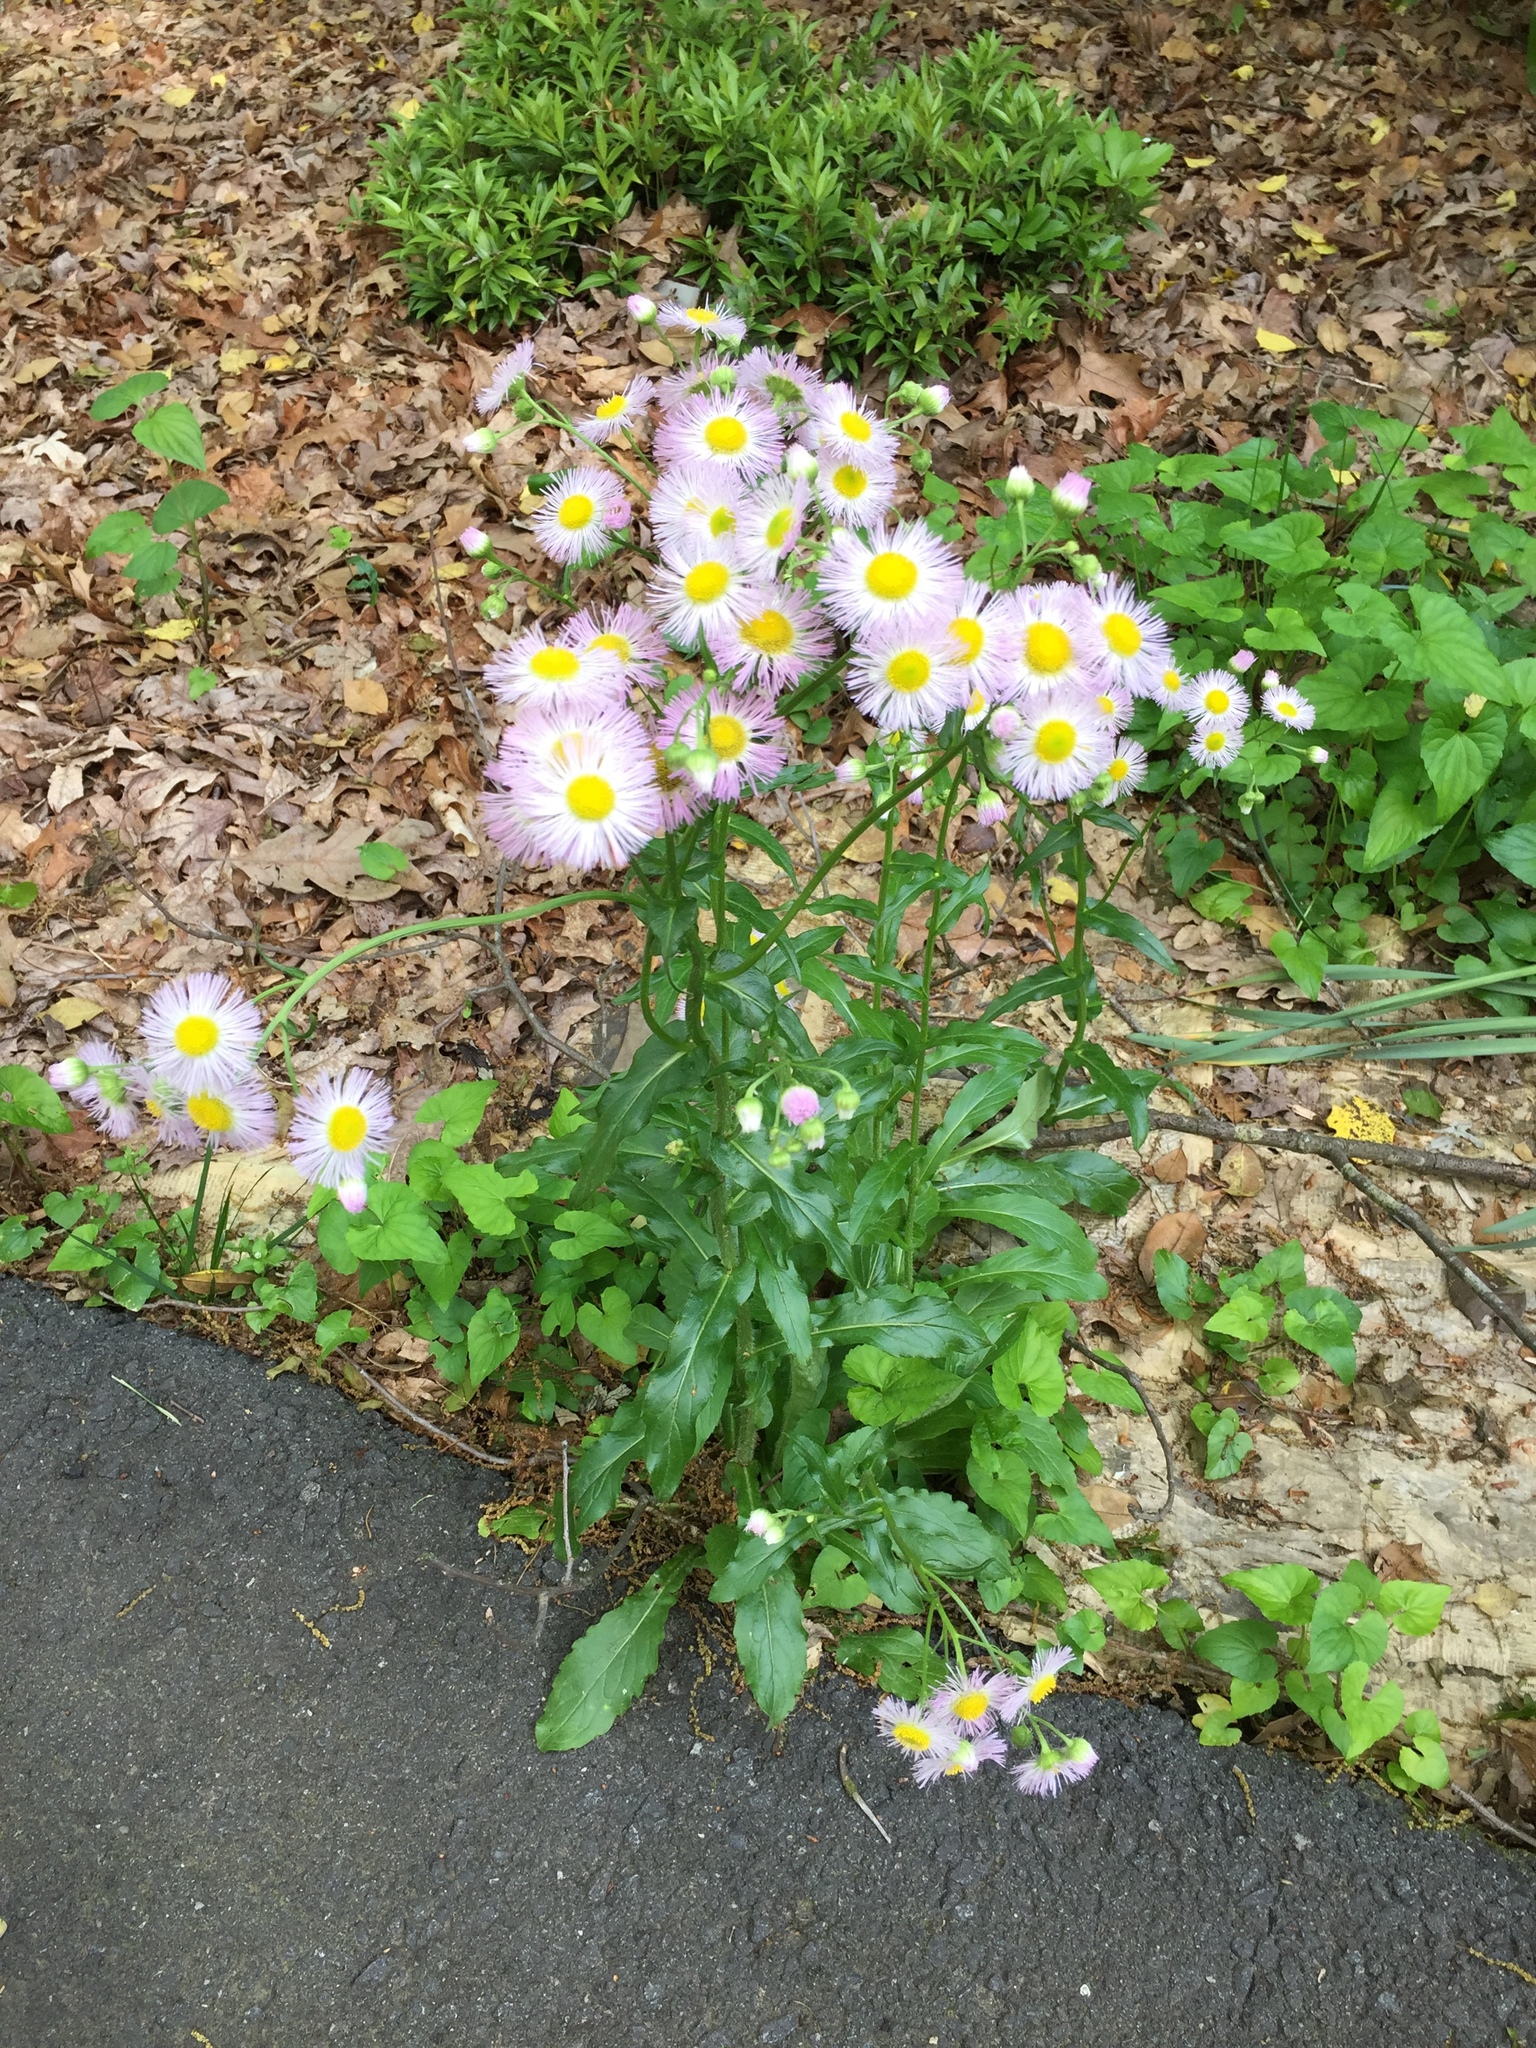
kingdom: Plantae
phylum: Tracheophyta
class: Magnoliopsida
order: Asterales
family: Asteraceae
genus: Erigeron
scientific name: Erigeron philadelphicus
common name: Robin's-plantain
